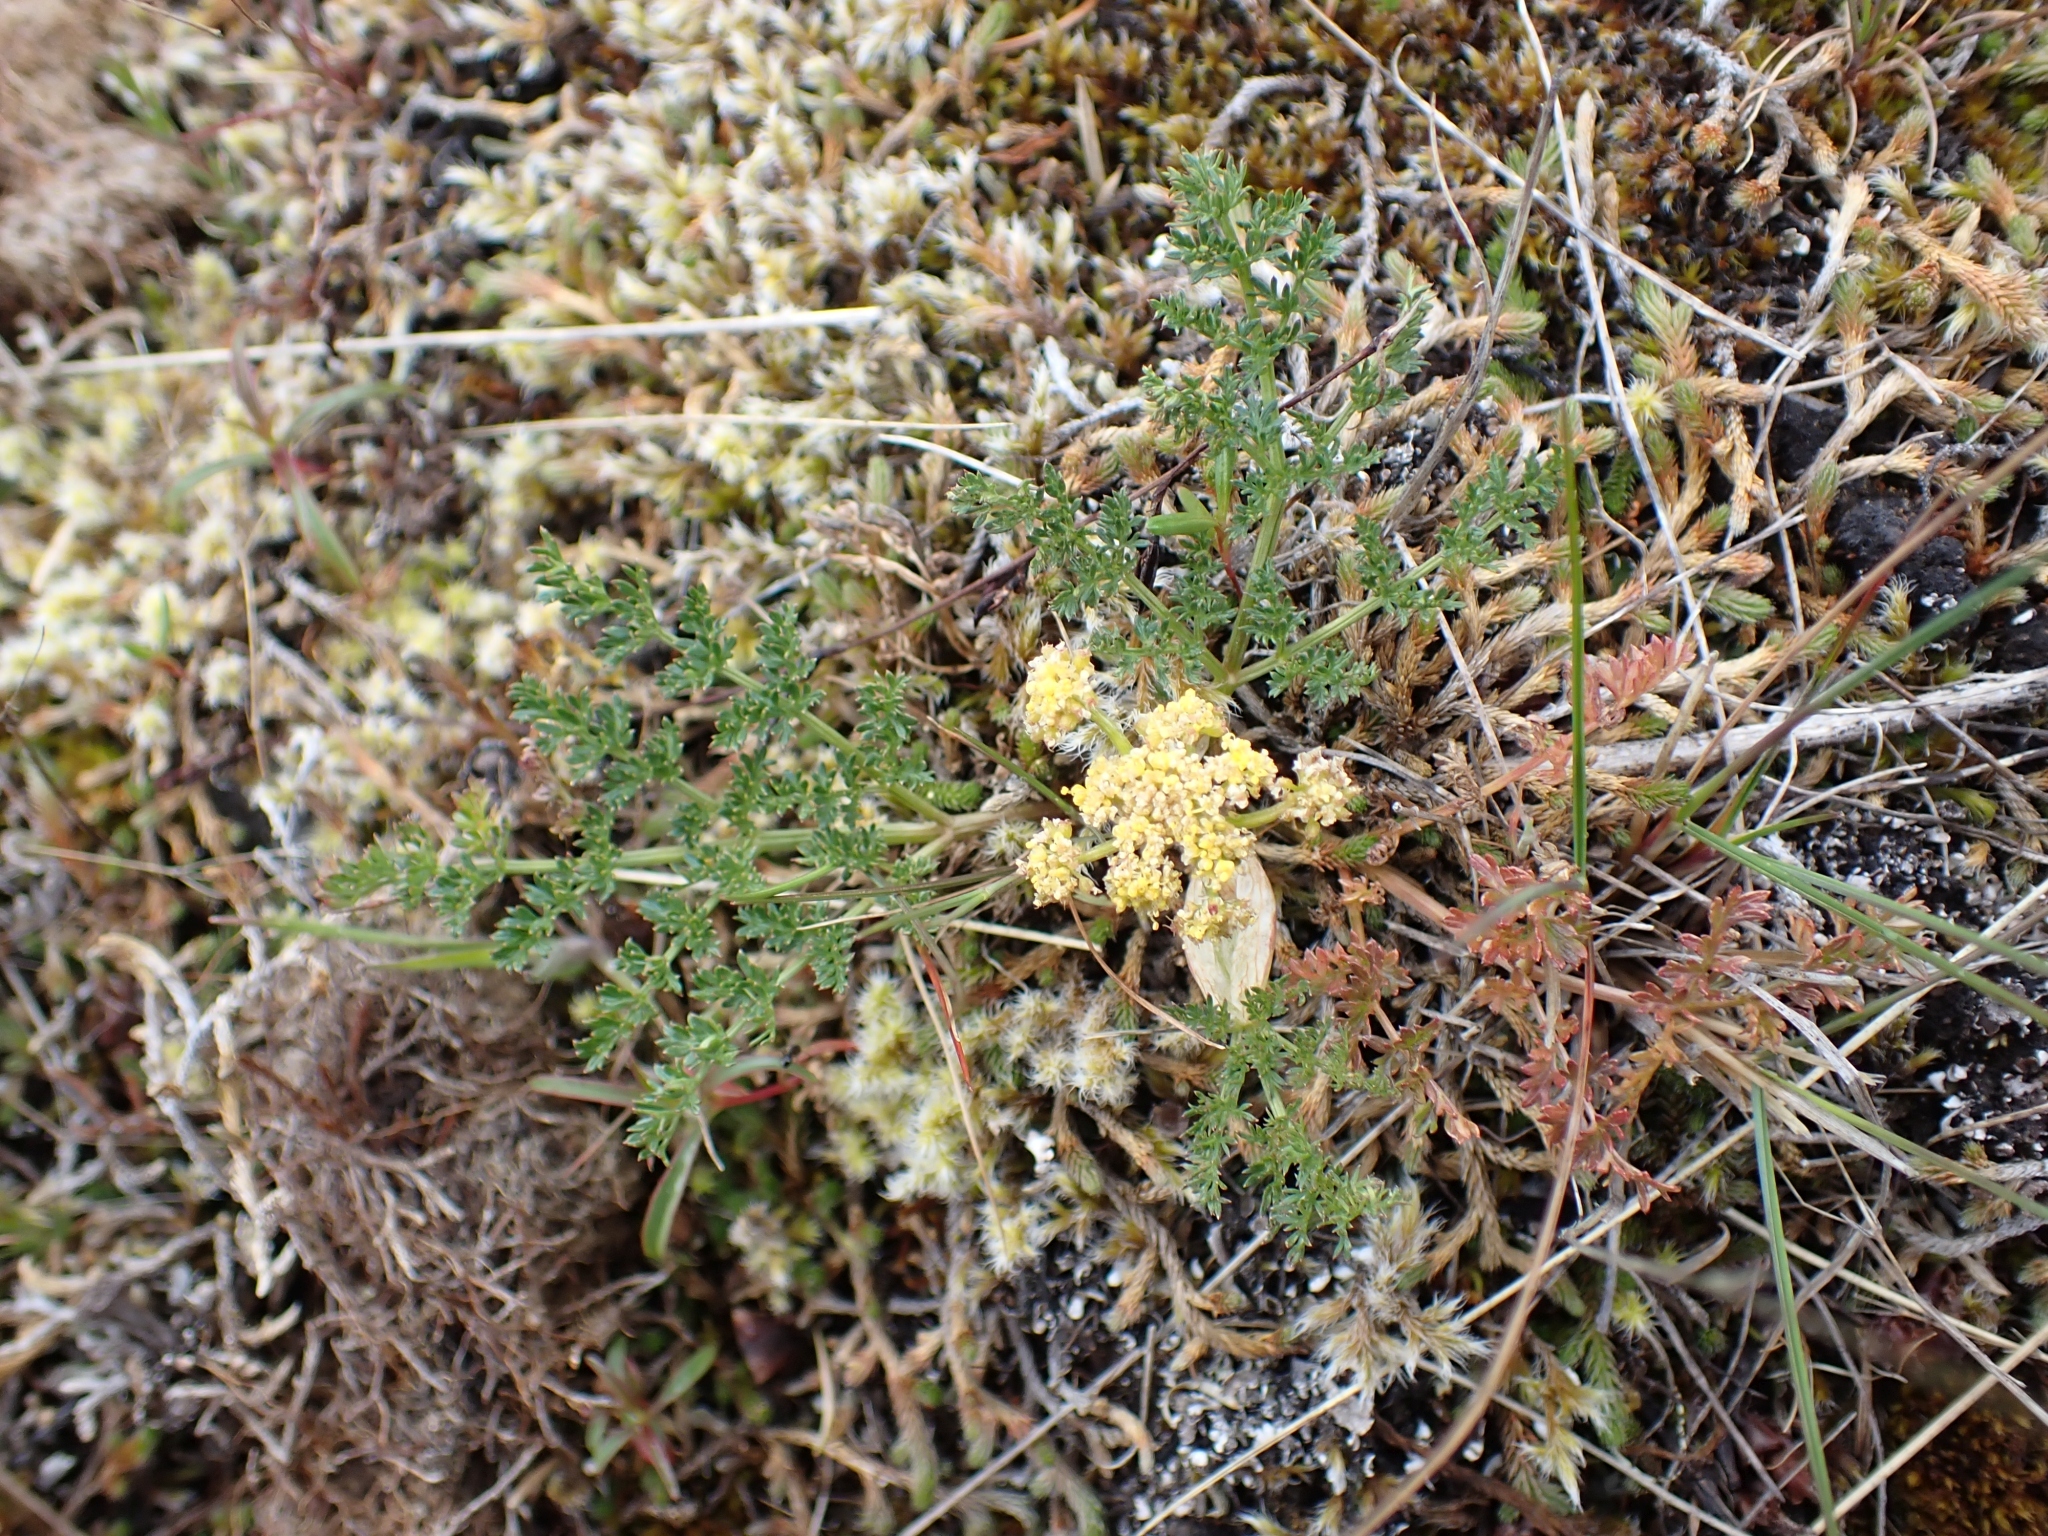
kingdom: Plantae
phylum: Tracheophyta
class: Magnoliopsida
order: Apiales
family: Apiaceae
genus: Lomatium
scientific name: Lomatium utriculatum
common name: Fine-leaf desert-parsley
